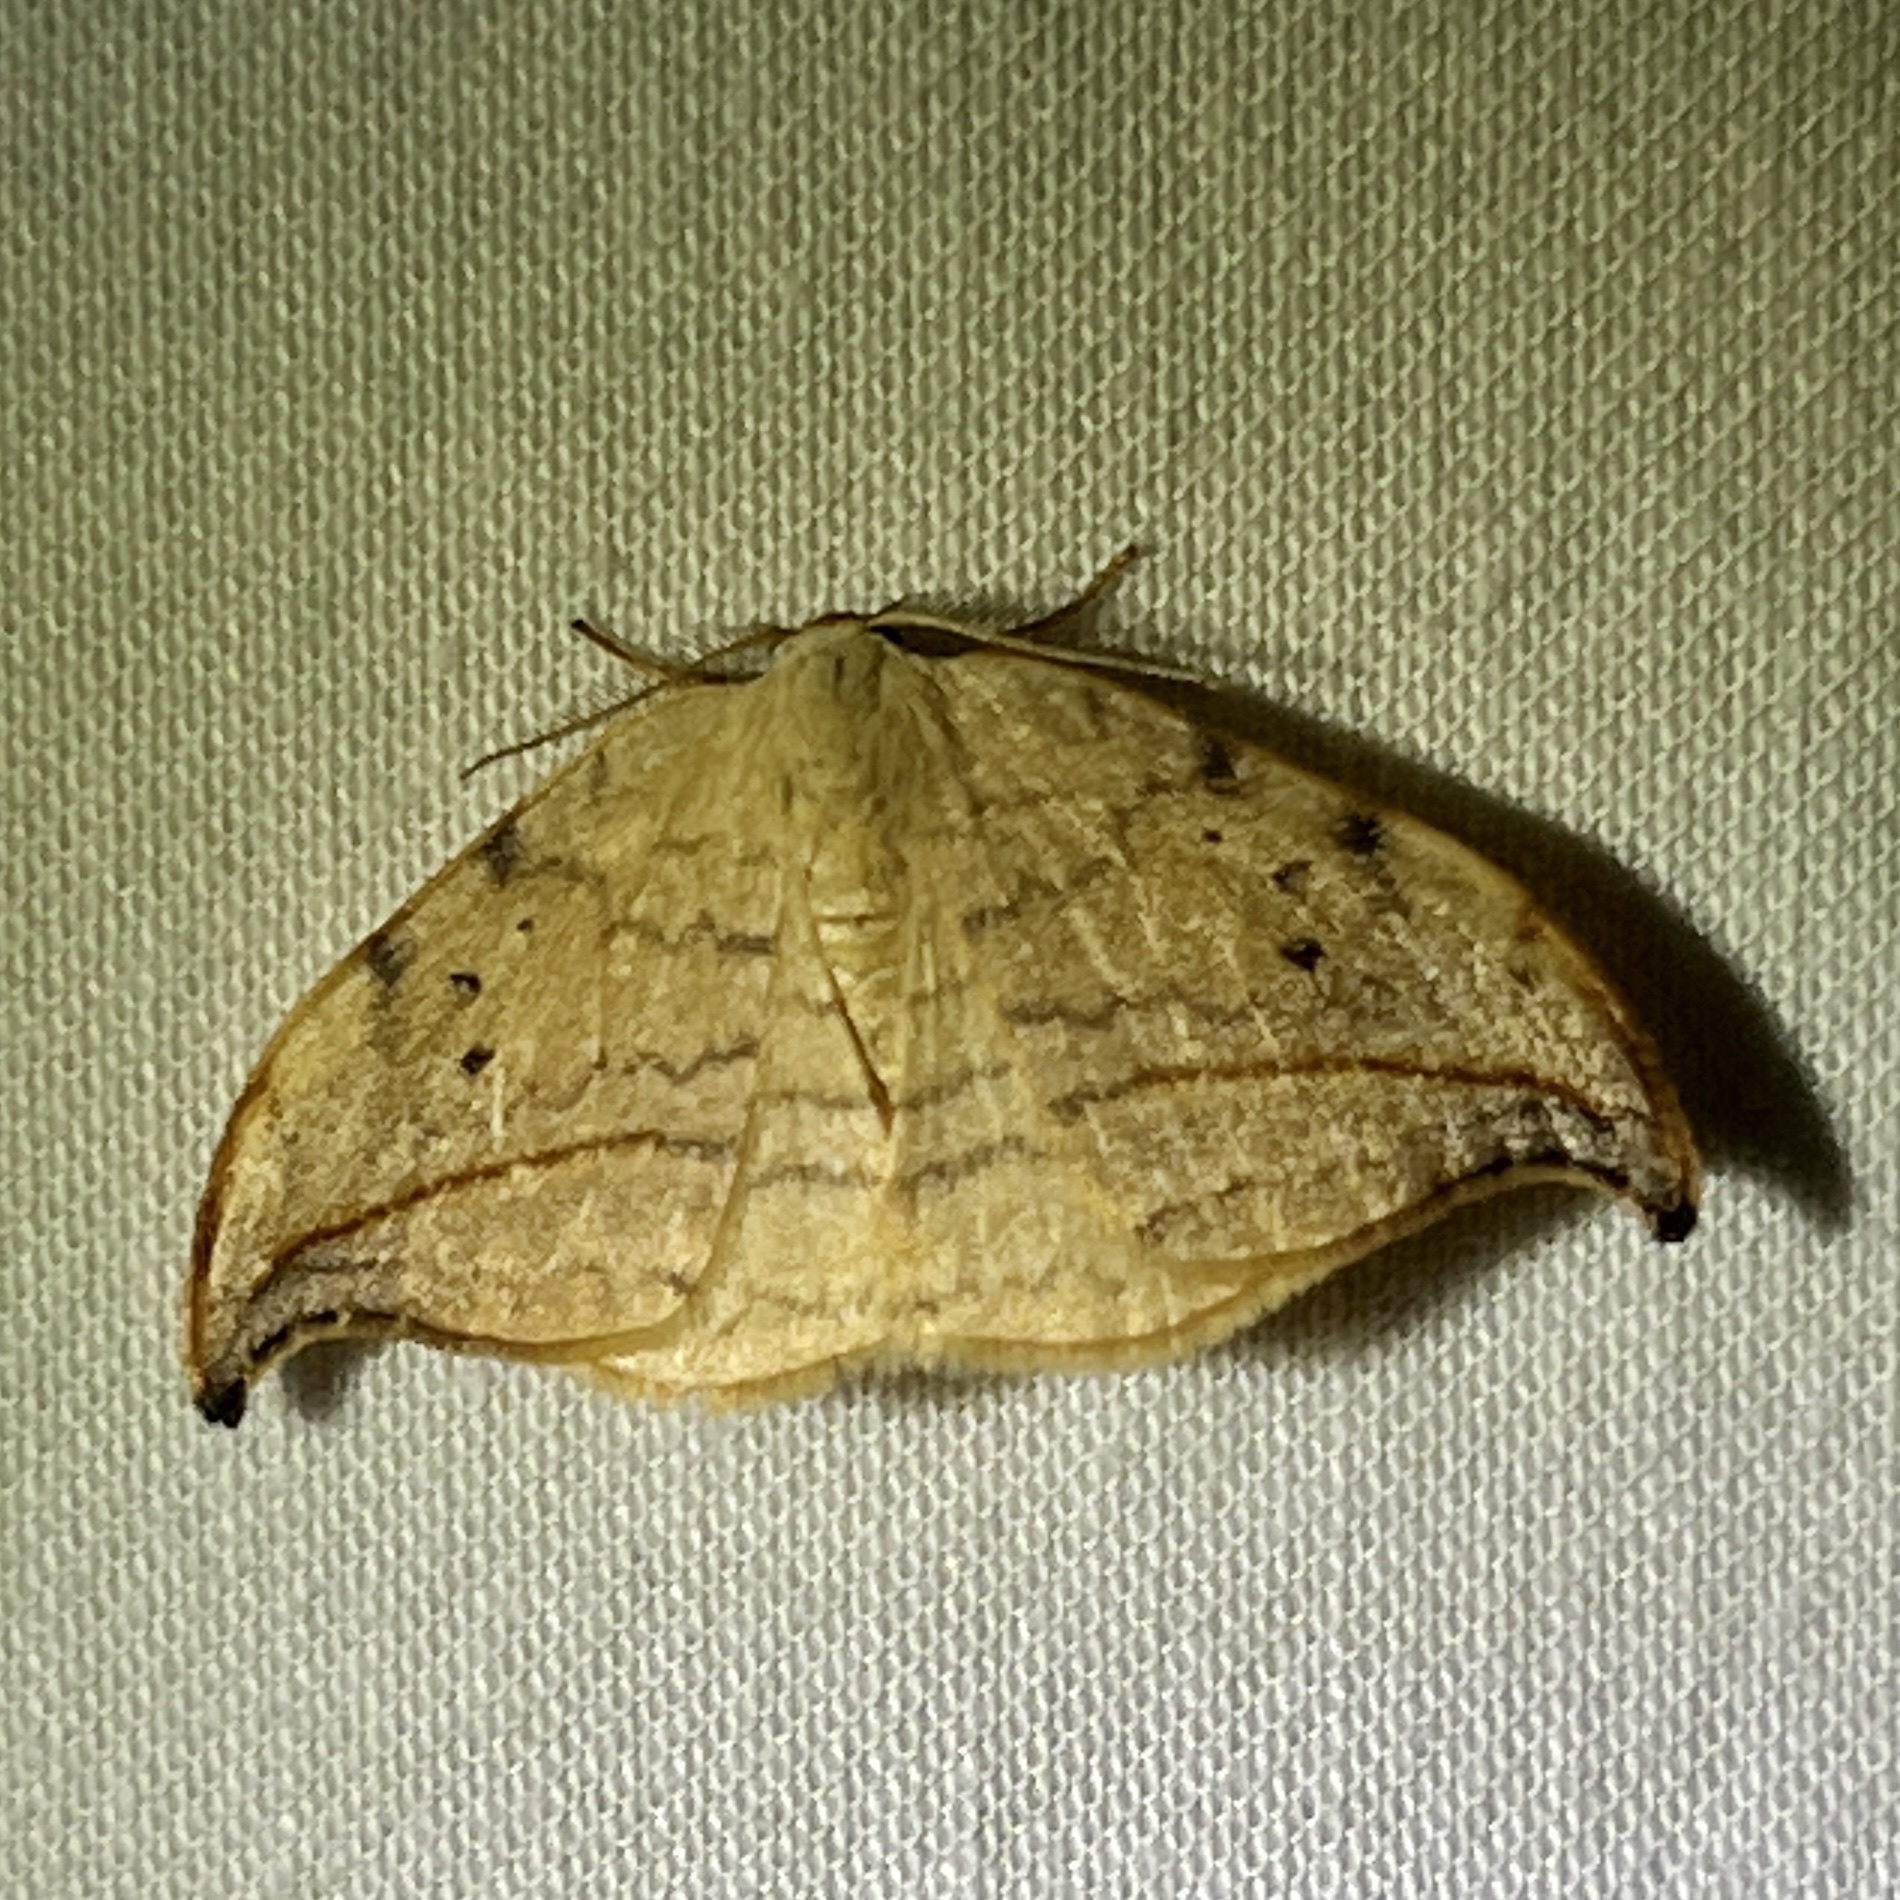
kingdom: Animalia
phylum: Arthropoda
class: Insecta
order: Lepidoptera
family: Drepanidae
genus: Drepana
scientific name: Drepana arcuata
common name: Arched hooktip moth
